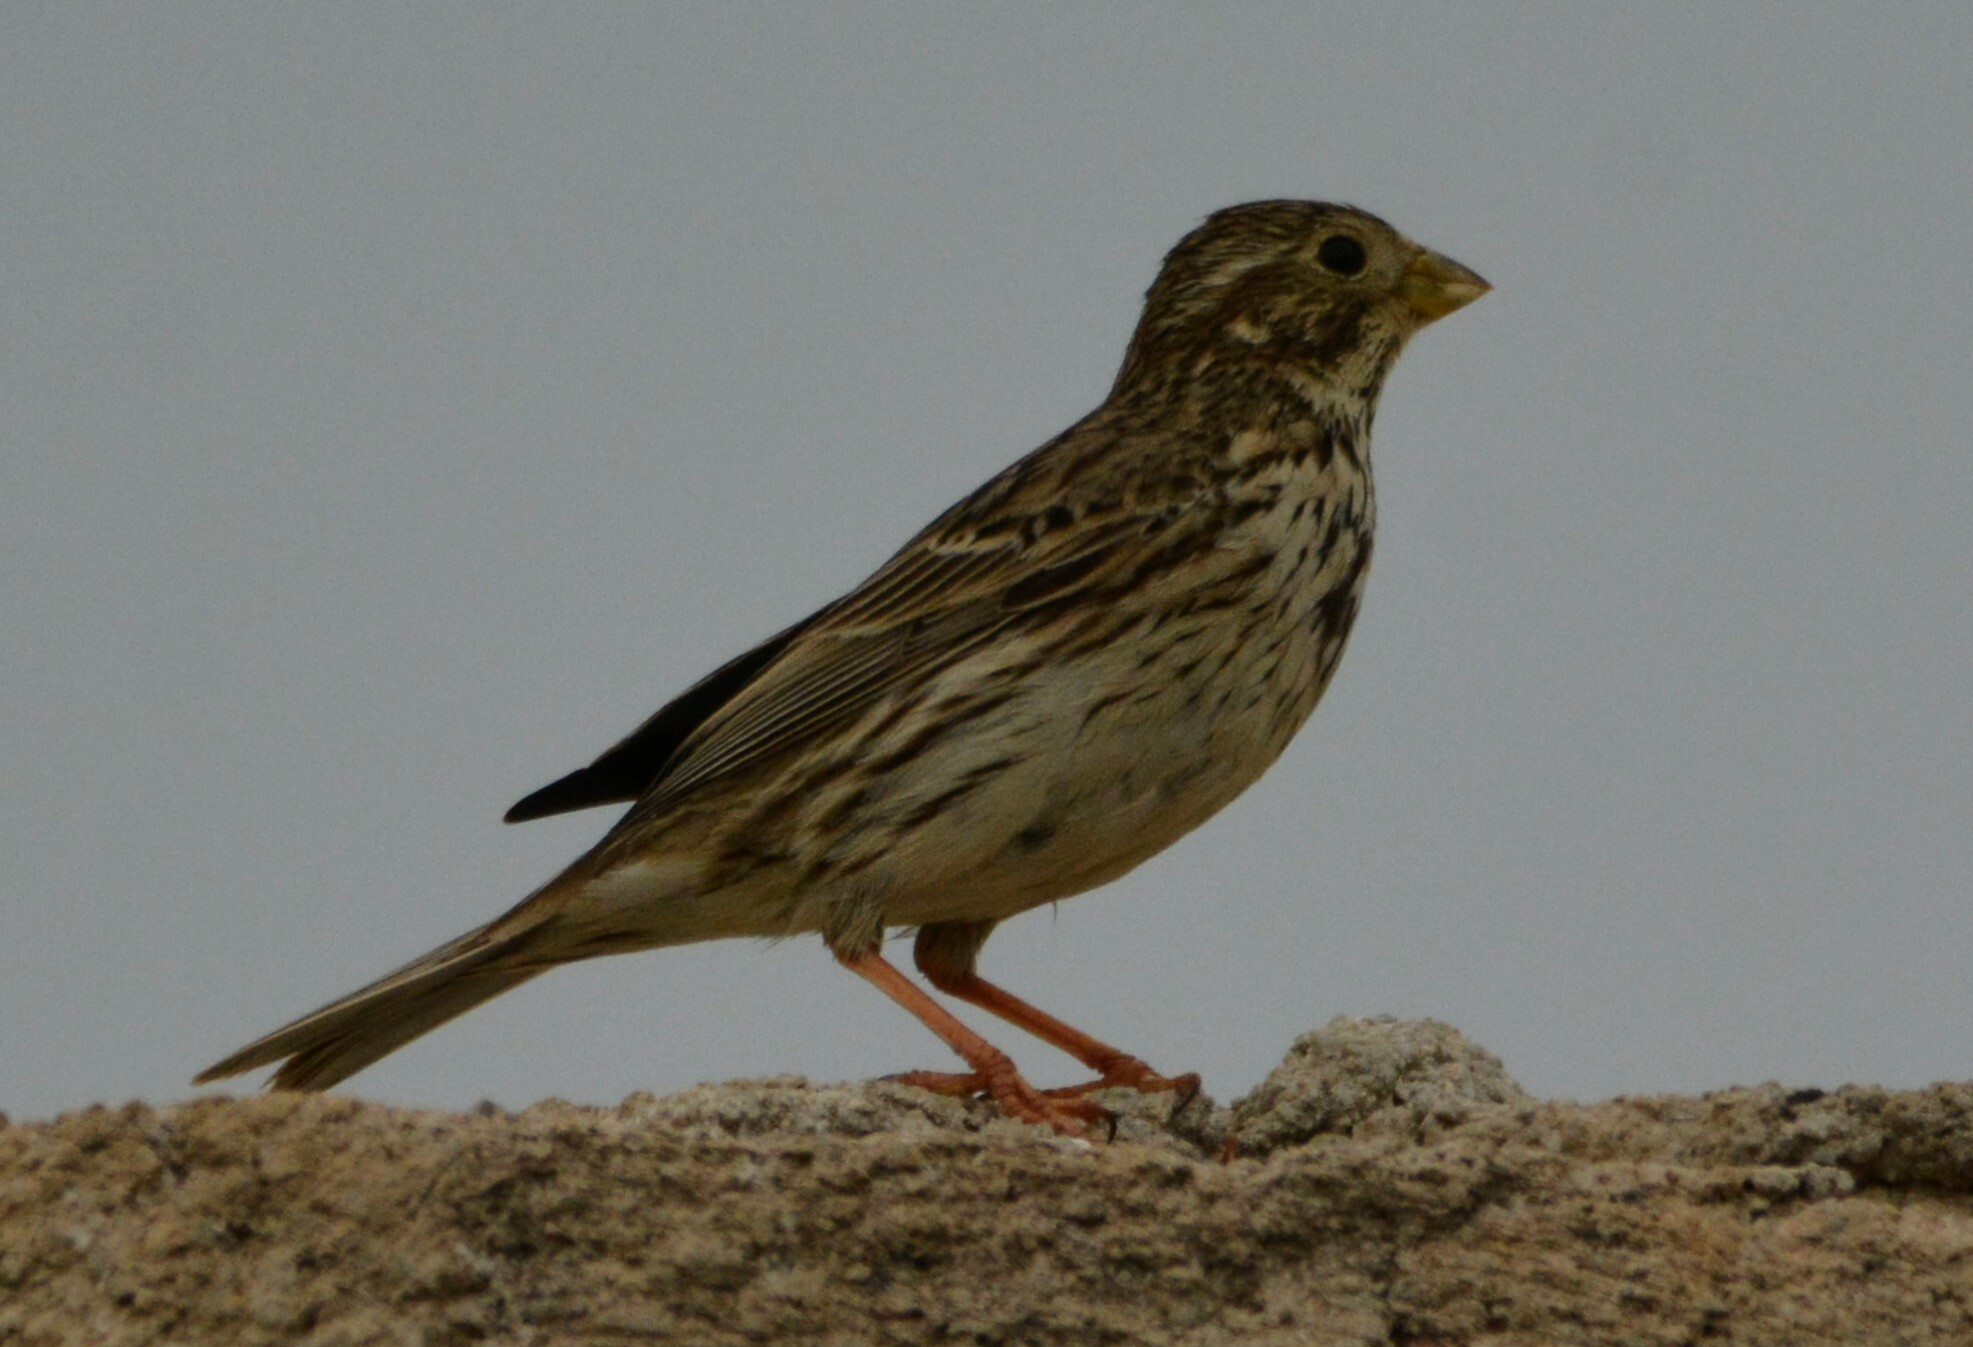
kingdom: Animalia
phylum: Chordata
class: Aves
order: Passeriformes
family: Emberizidae
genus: Emberiza
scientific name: Emberiza calandra
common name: Corn bunting
